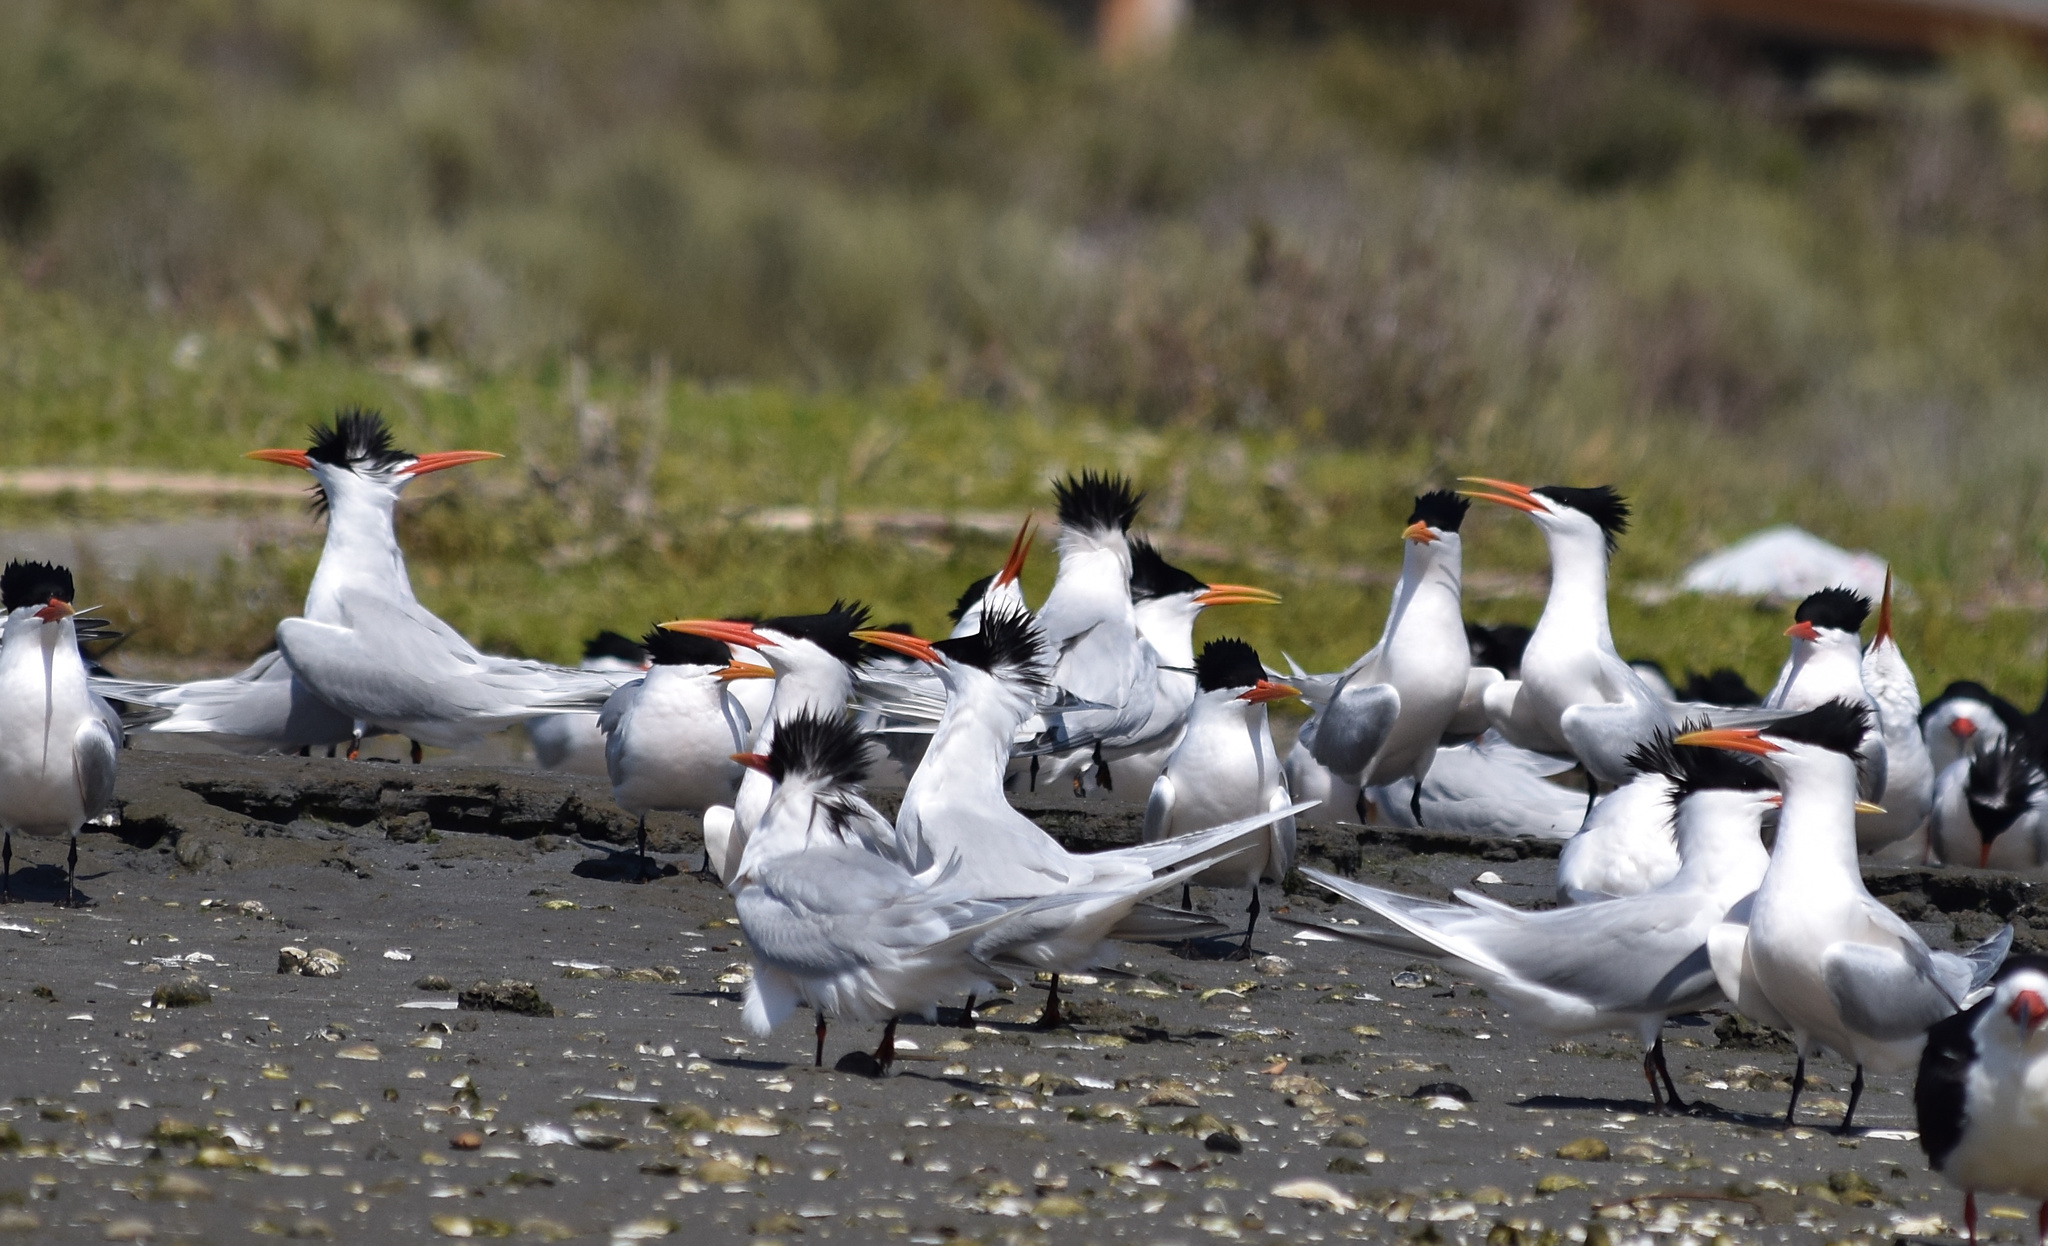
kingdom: Animalia
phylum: Chordata
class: Aves
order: Charadriiformes
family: Laridae
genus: Thalasseus
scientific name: Thalasseus elegans
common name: Elegant tern
